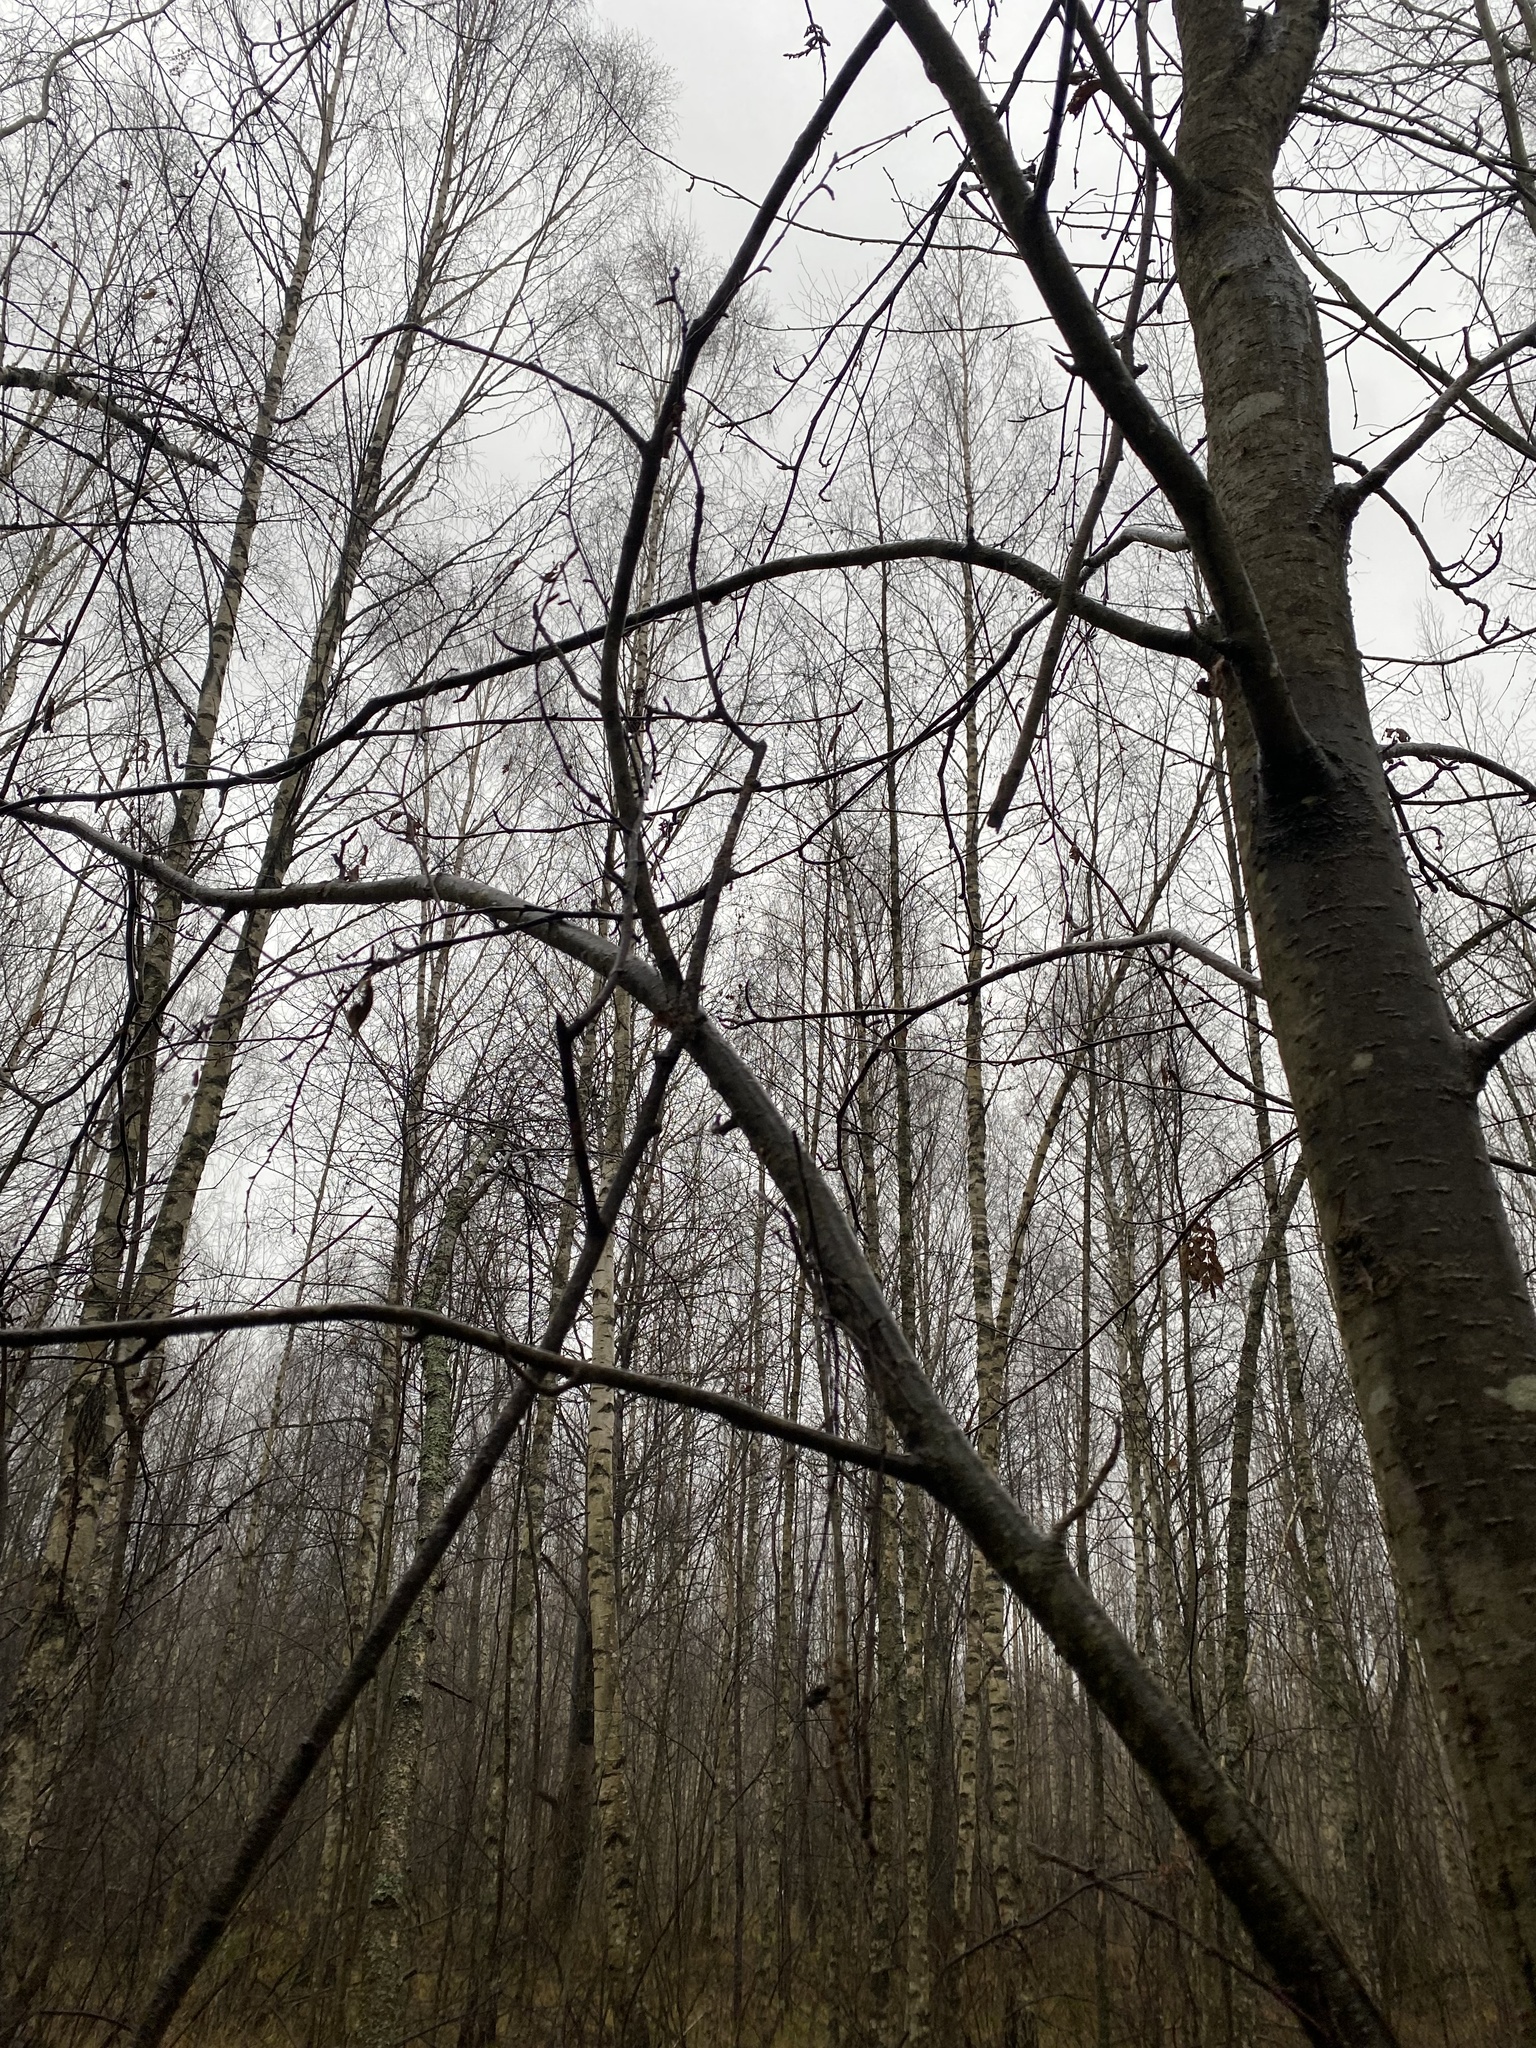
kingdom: Plantae
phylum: Tracheophyta
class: Magnoliopsida
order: Fagales
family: Betulaceae
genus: Alnus
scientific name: Alnus glutinosa
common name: Black alder
